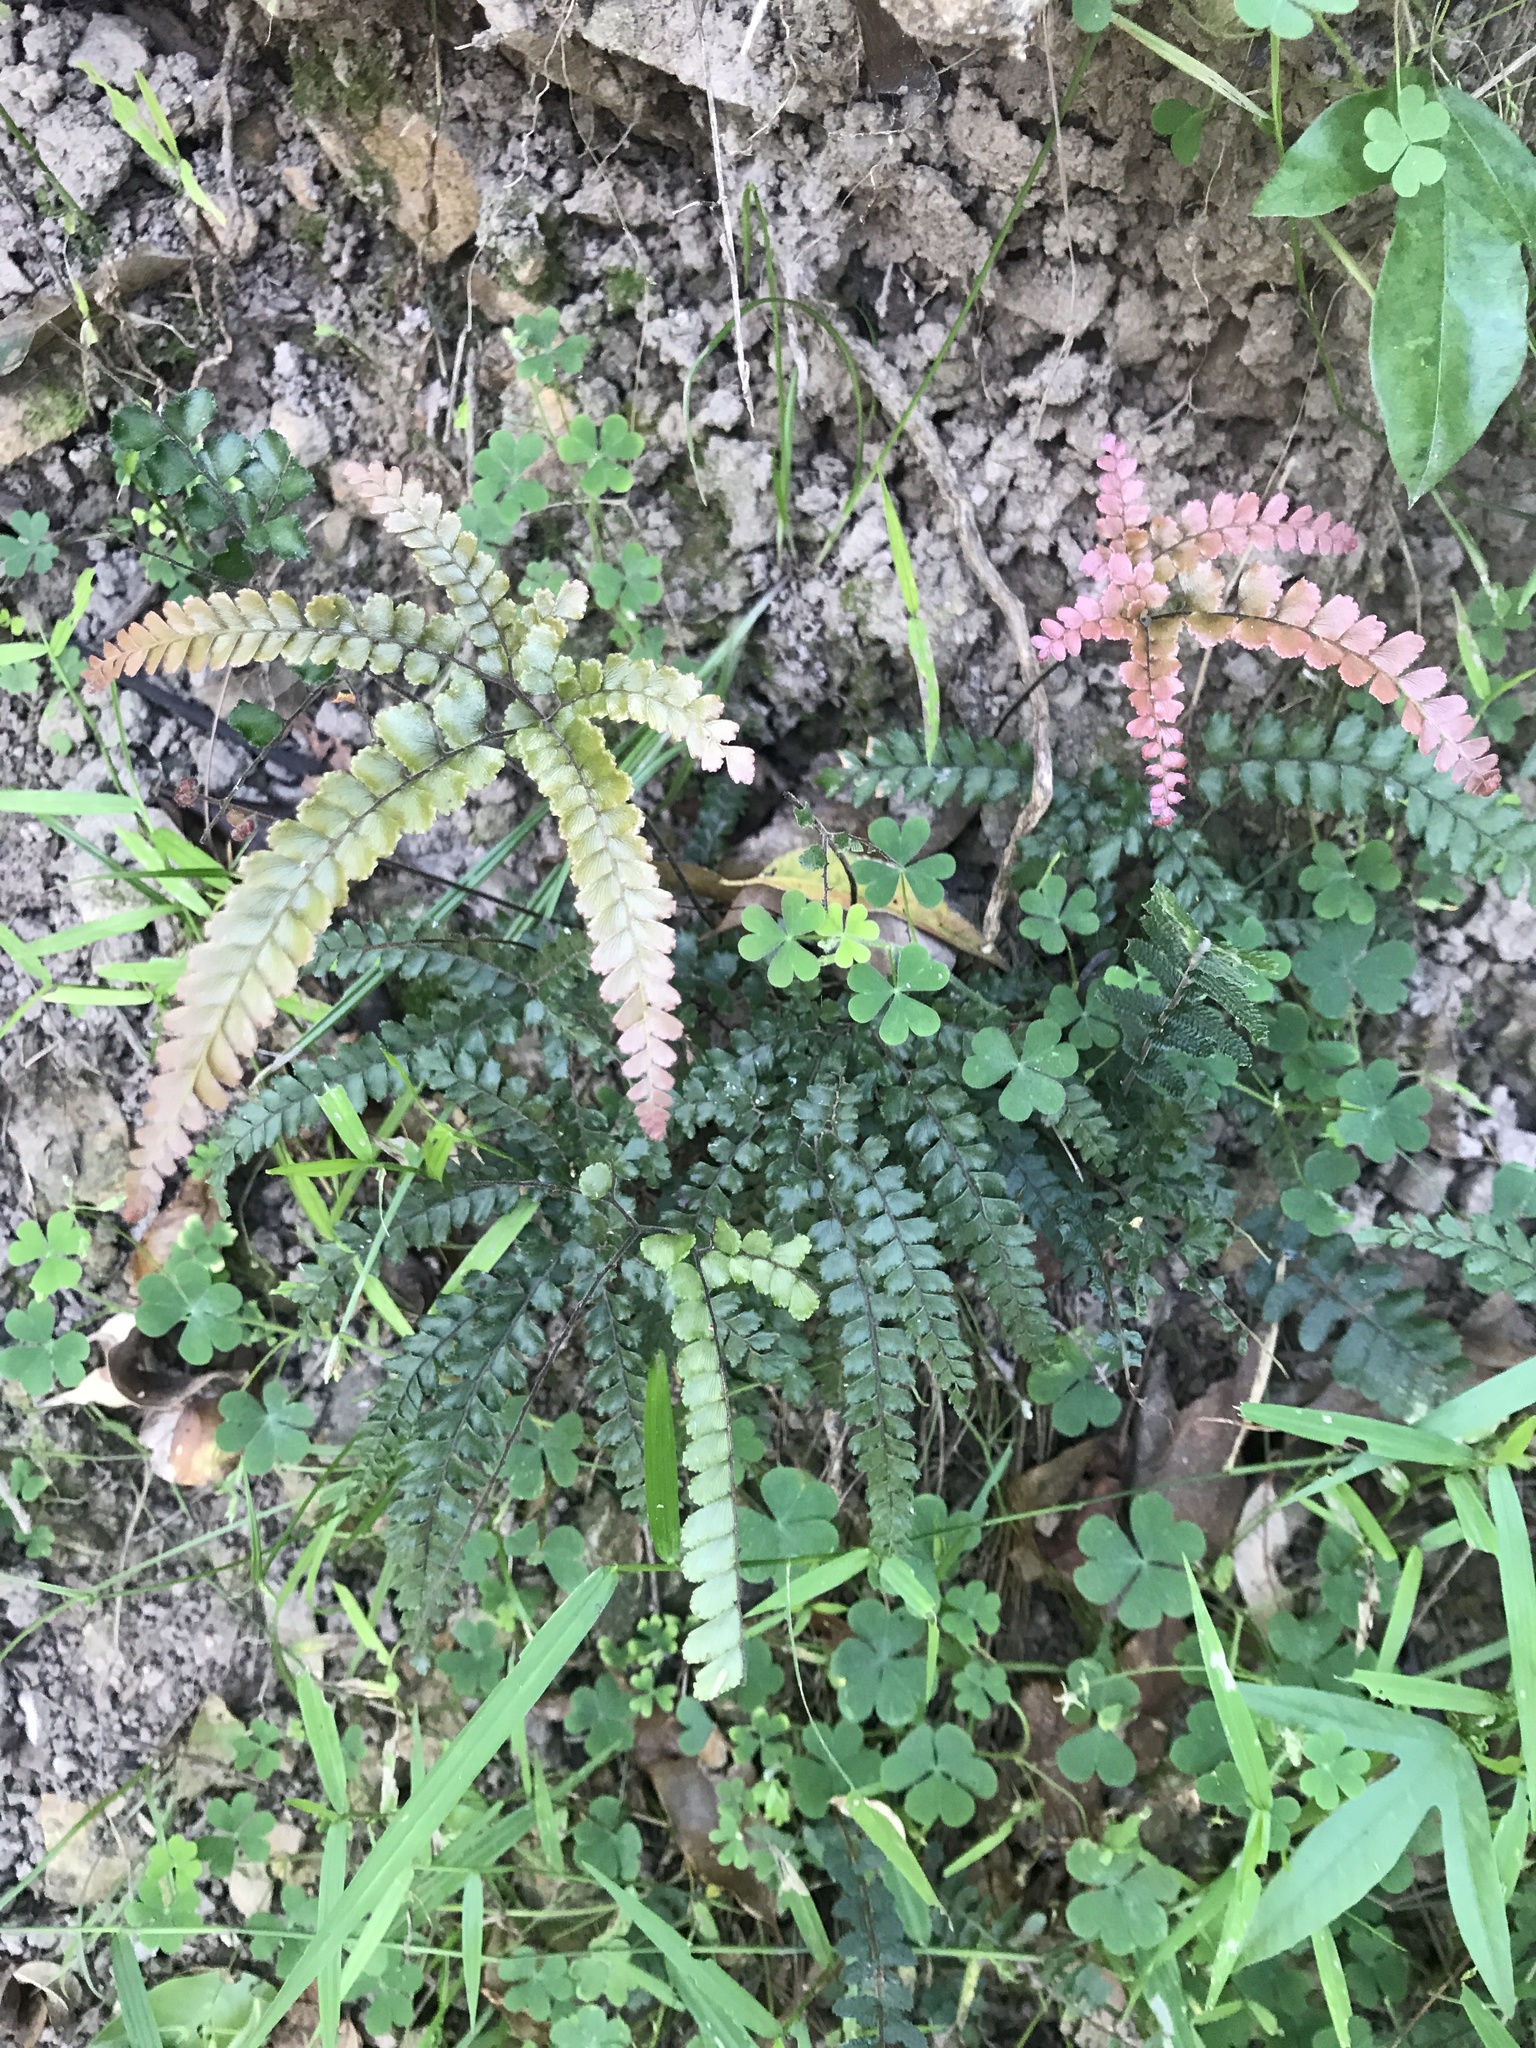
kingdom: Plantae
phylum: Tracheophyta
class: Polypodiopsida
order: Polypodiales
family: Pteridaceae
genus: Adiantum
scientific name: Adiantum hispidulum
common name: Rough maidenhair
